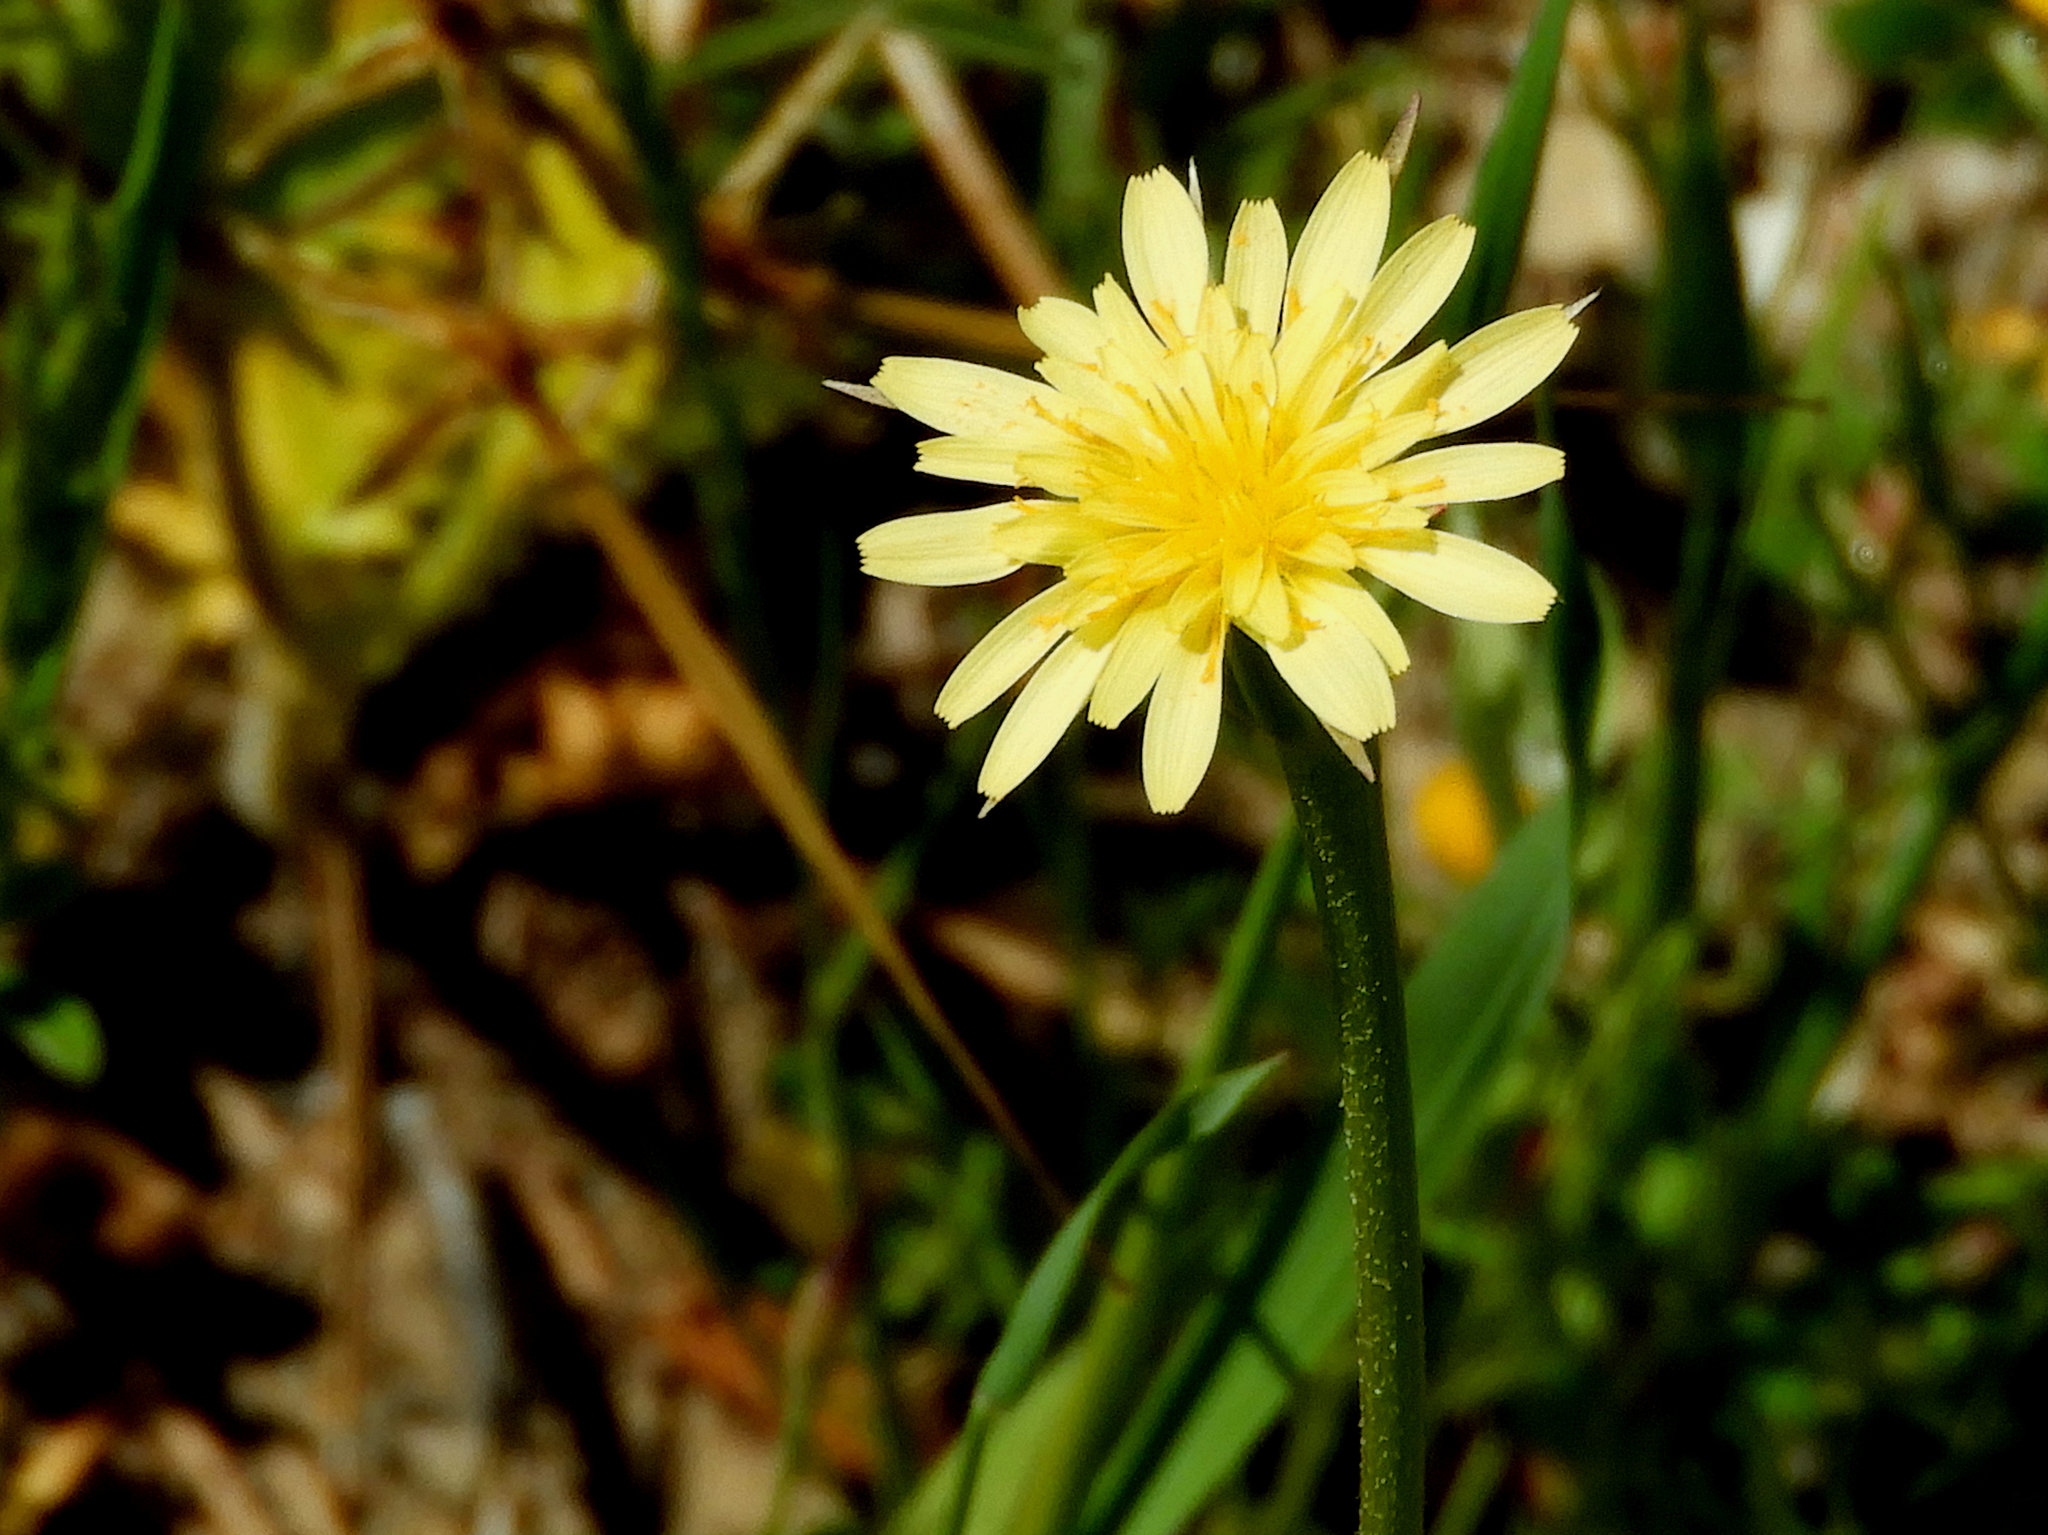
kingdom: Plantae
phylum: Tracheophyta
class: Magnoliopsida
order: Asterales
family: Asteraceae
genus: Microseris
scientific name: Microseris lindleyi
